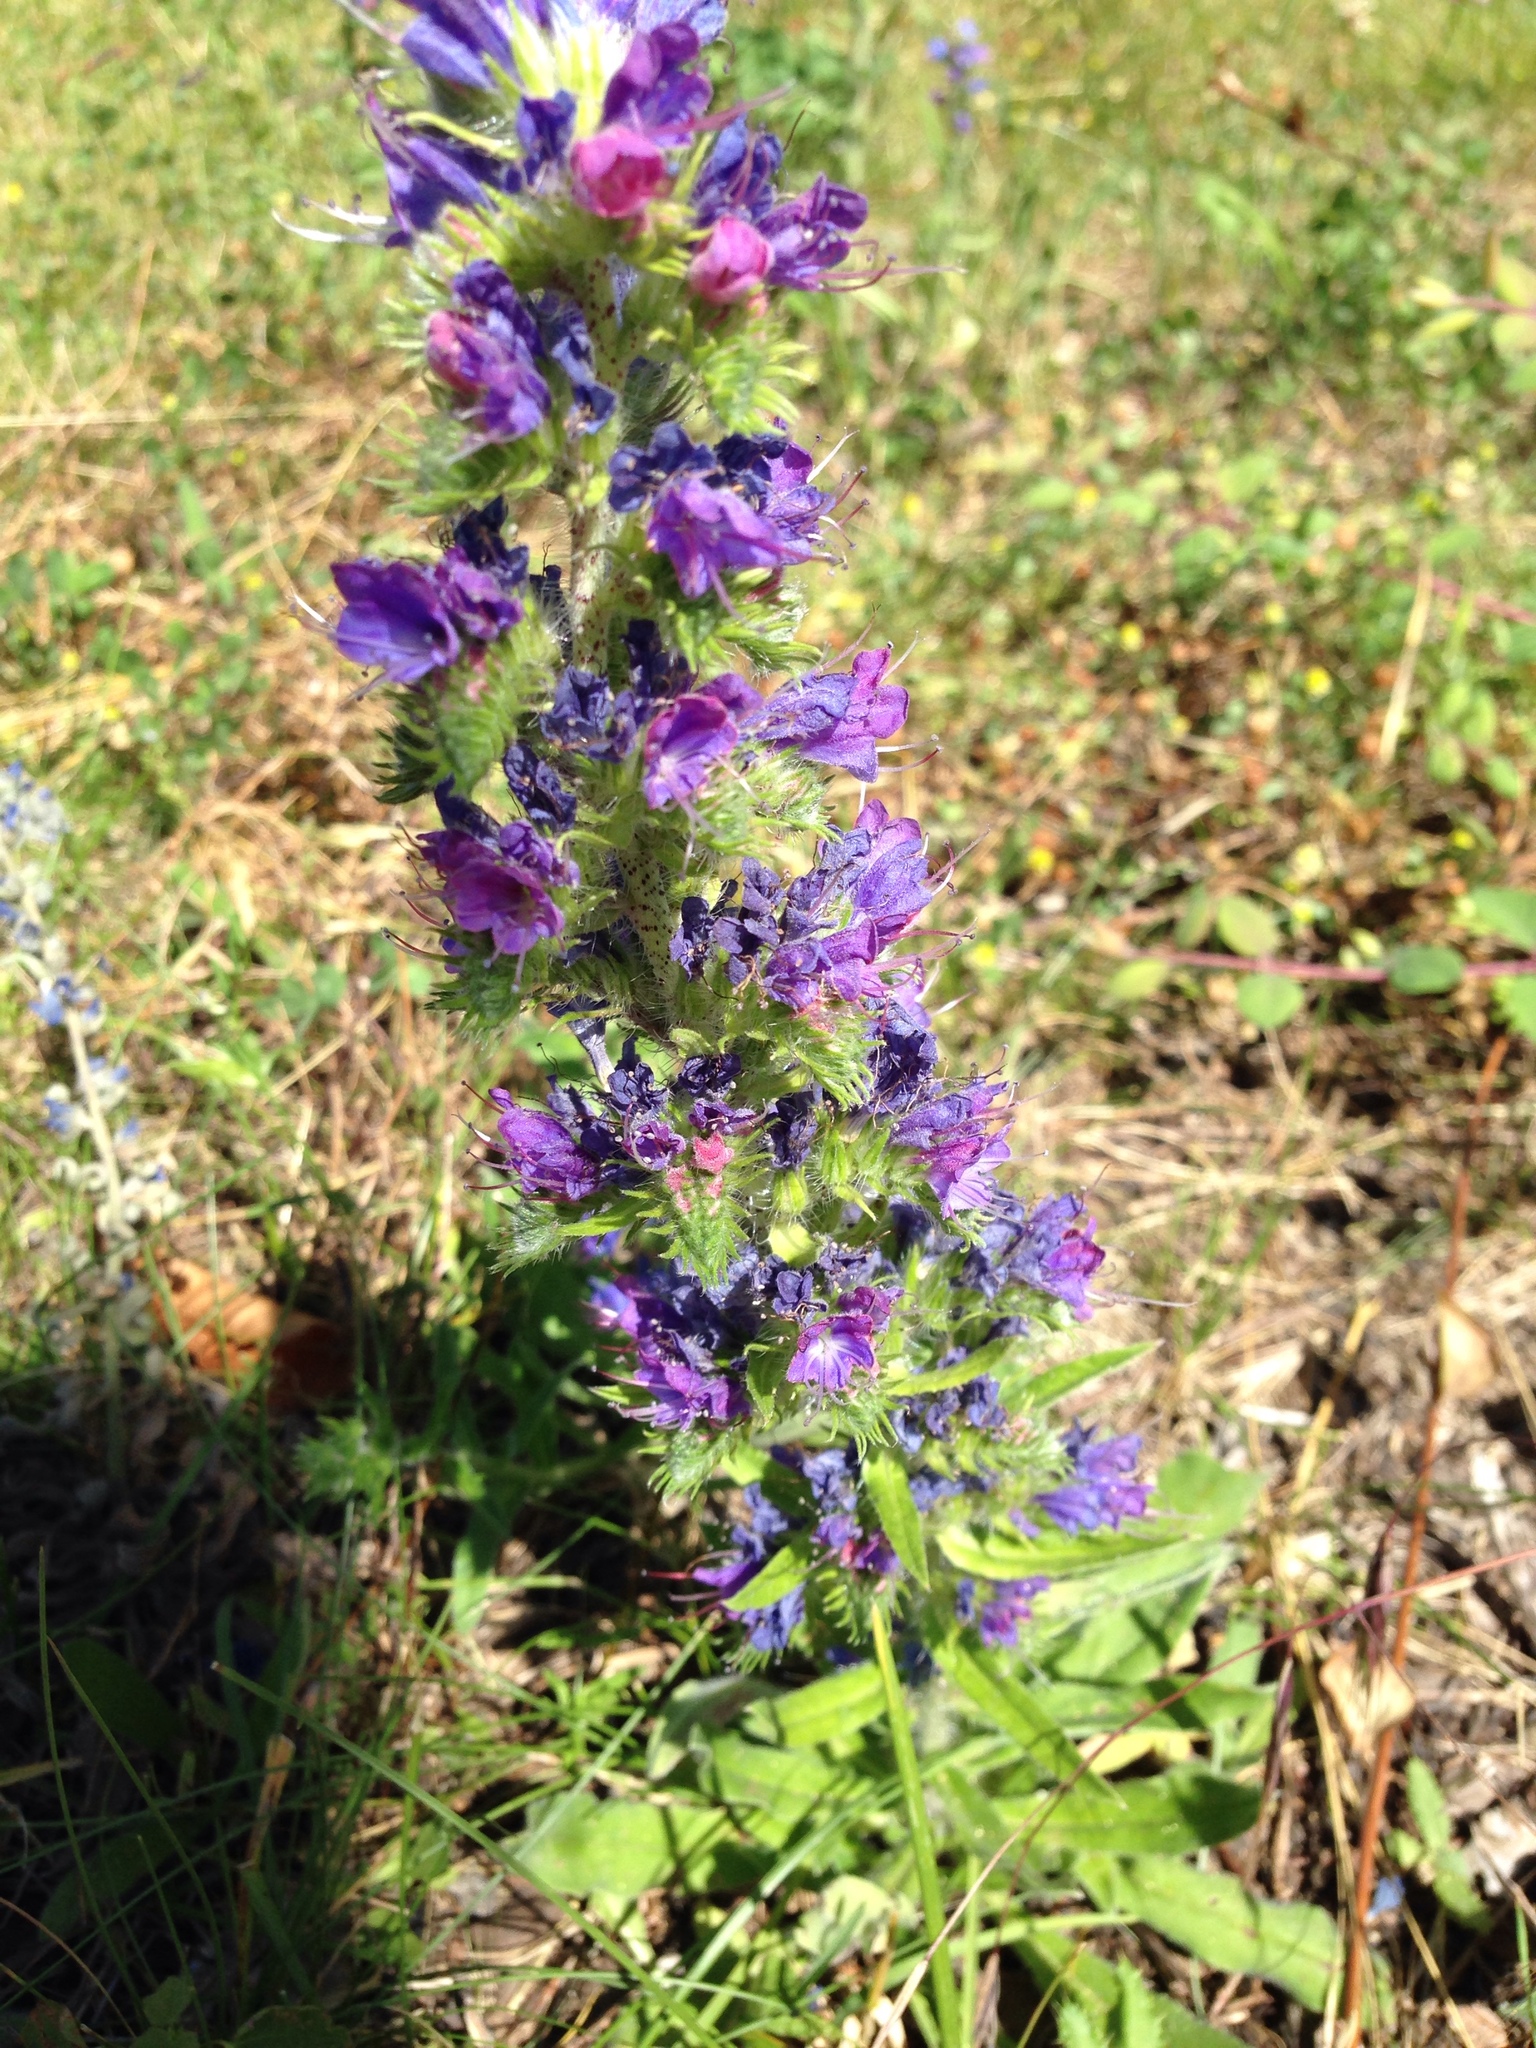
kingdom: Plantae
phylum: Tracheophyta
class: Magnoliopsida
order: Boraginales
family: Boraginaceae
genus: Echium
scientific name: Echium vulgare
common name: Common viper's bugloss
